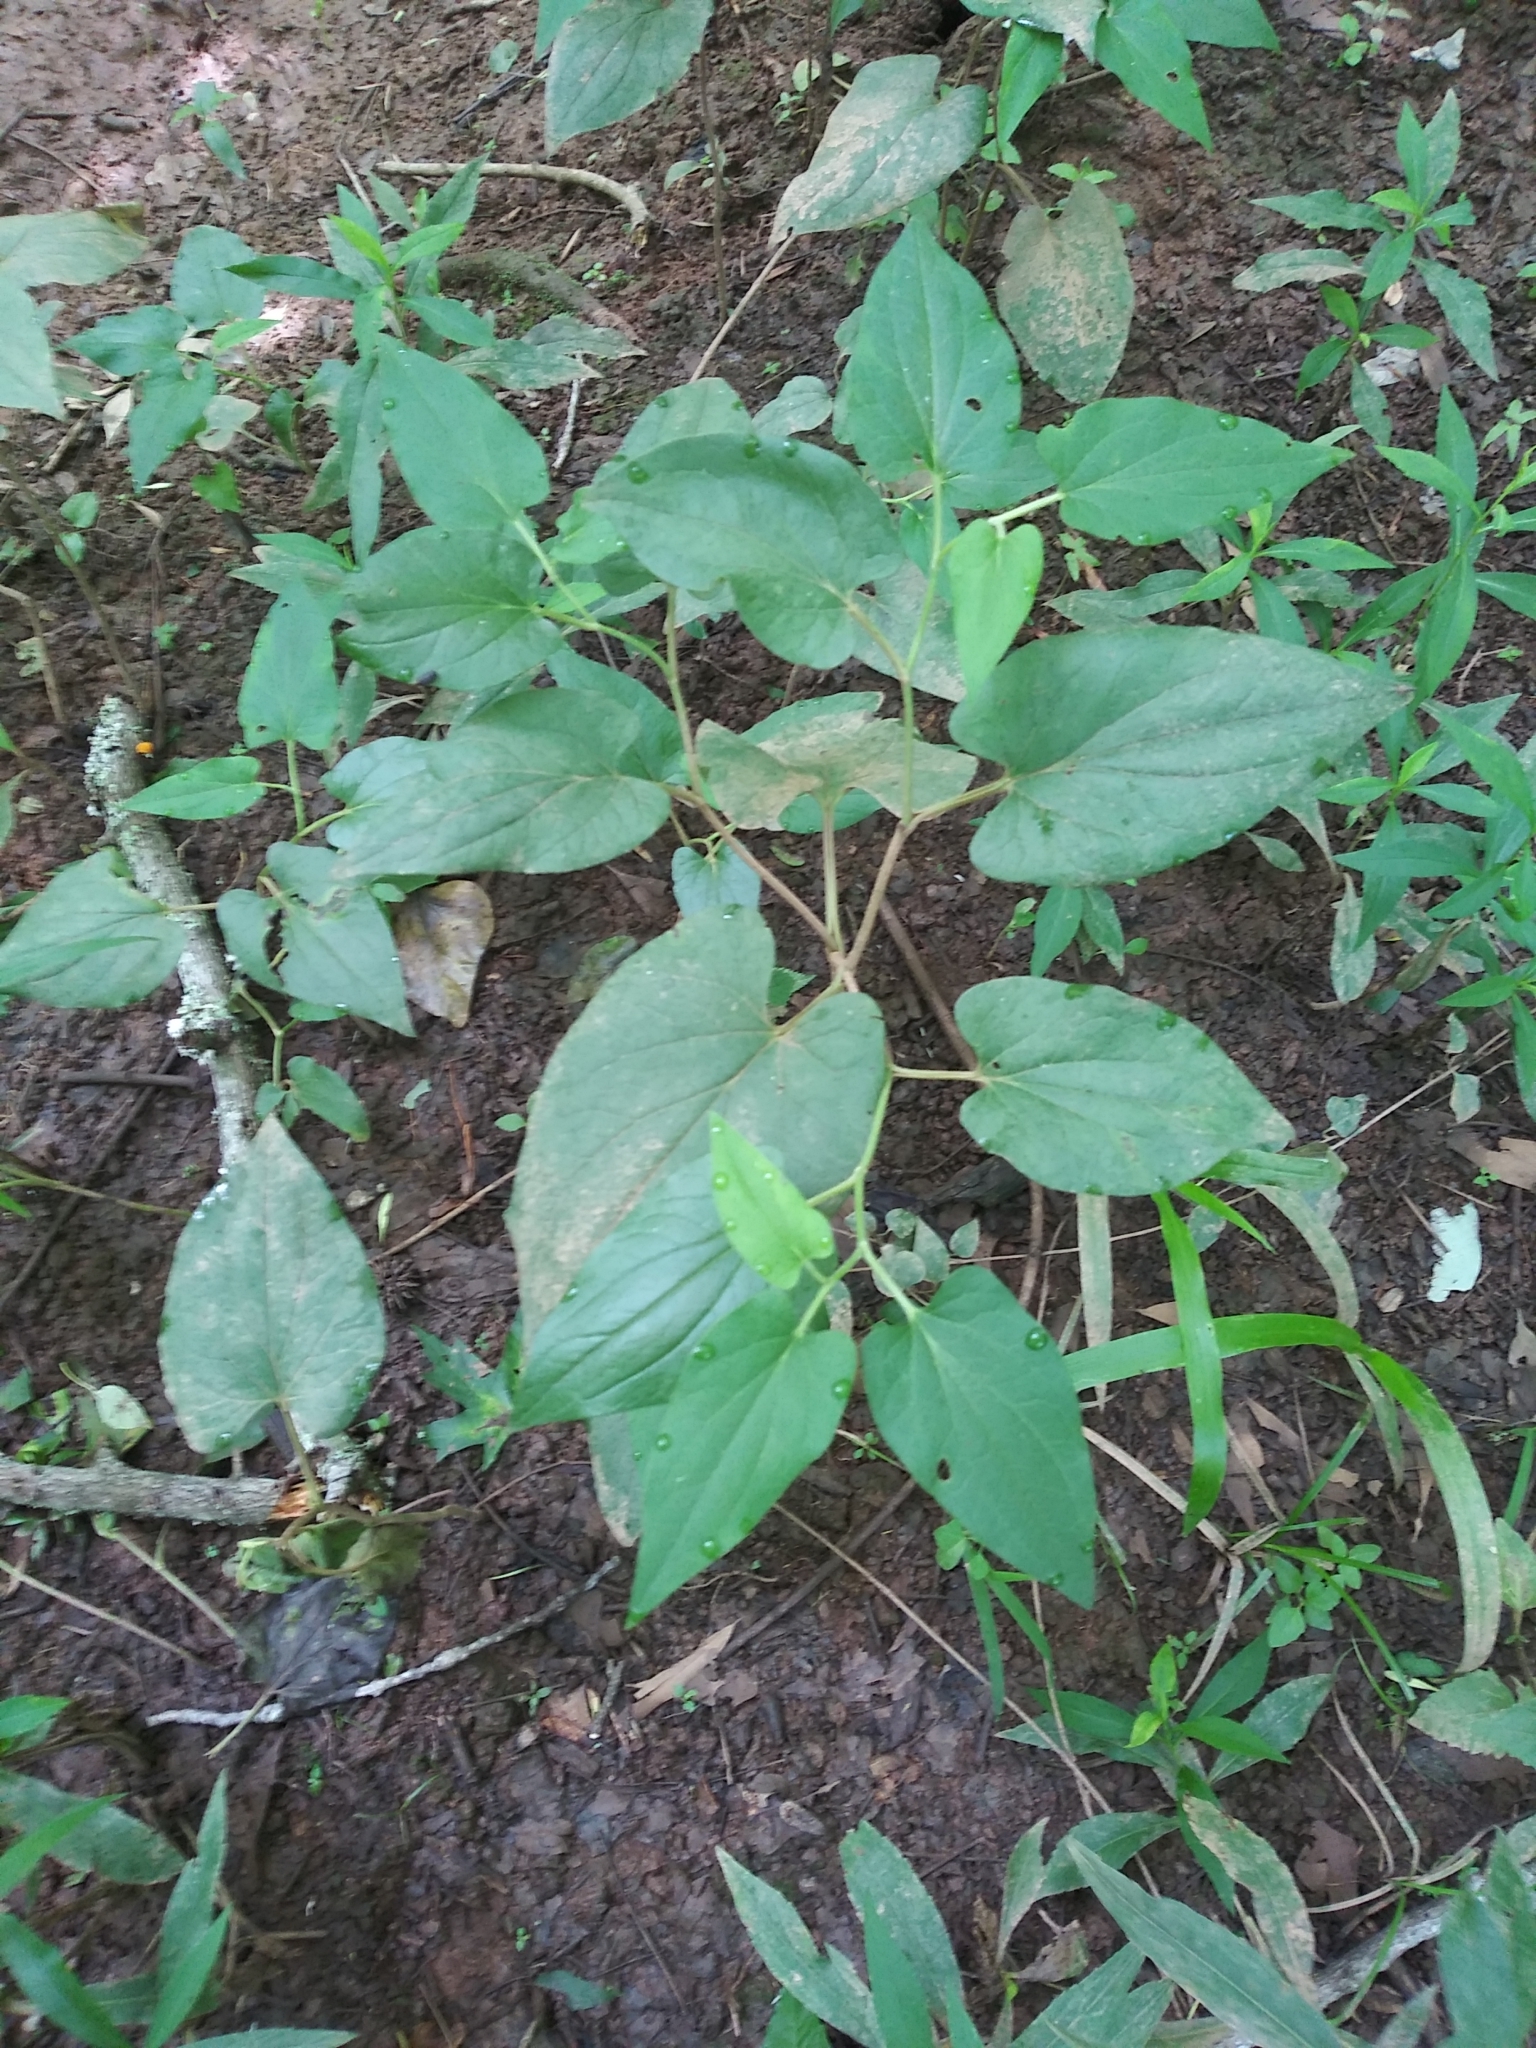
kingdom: Plantae
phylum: Tracheophyta
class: Magnoliopsida
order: Piperales
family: Saururaceae
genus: Saururus
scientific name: Saururus cernuus
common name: Lizard's-tail
